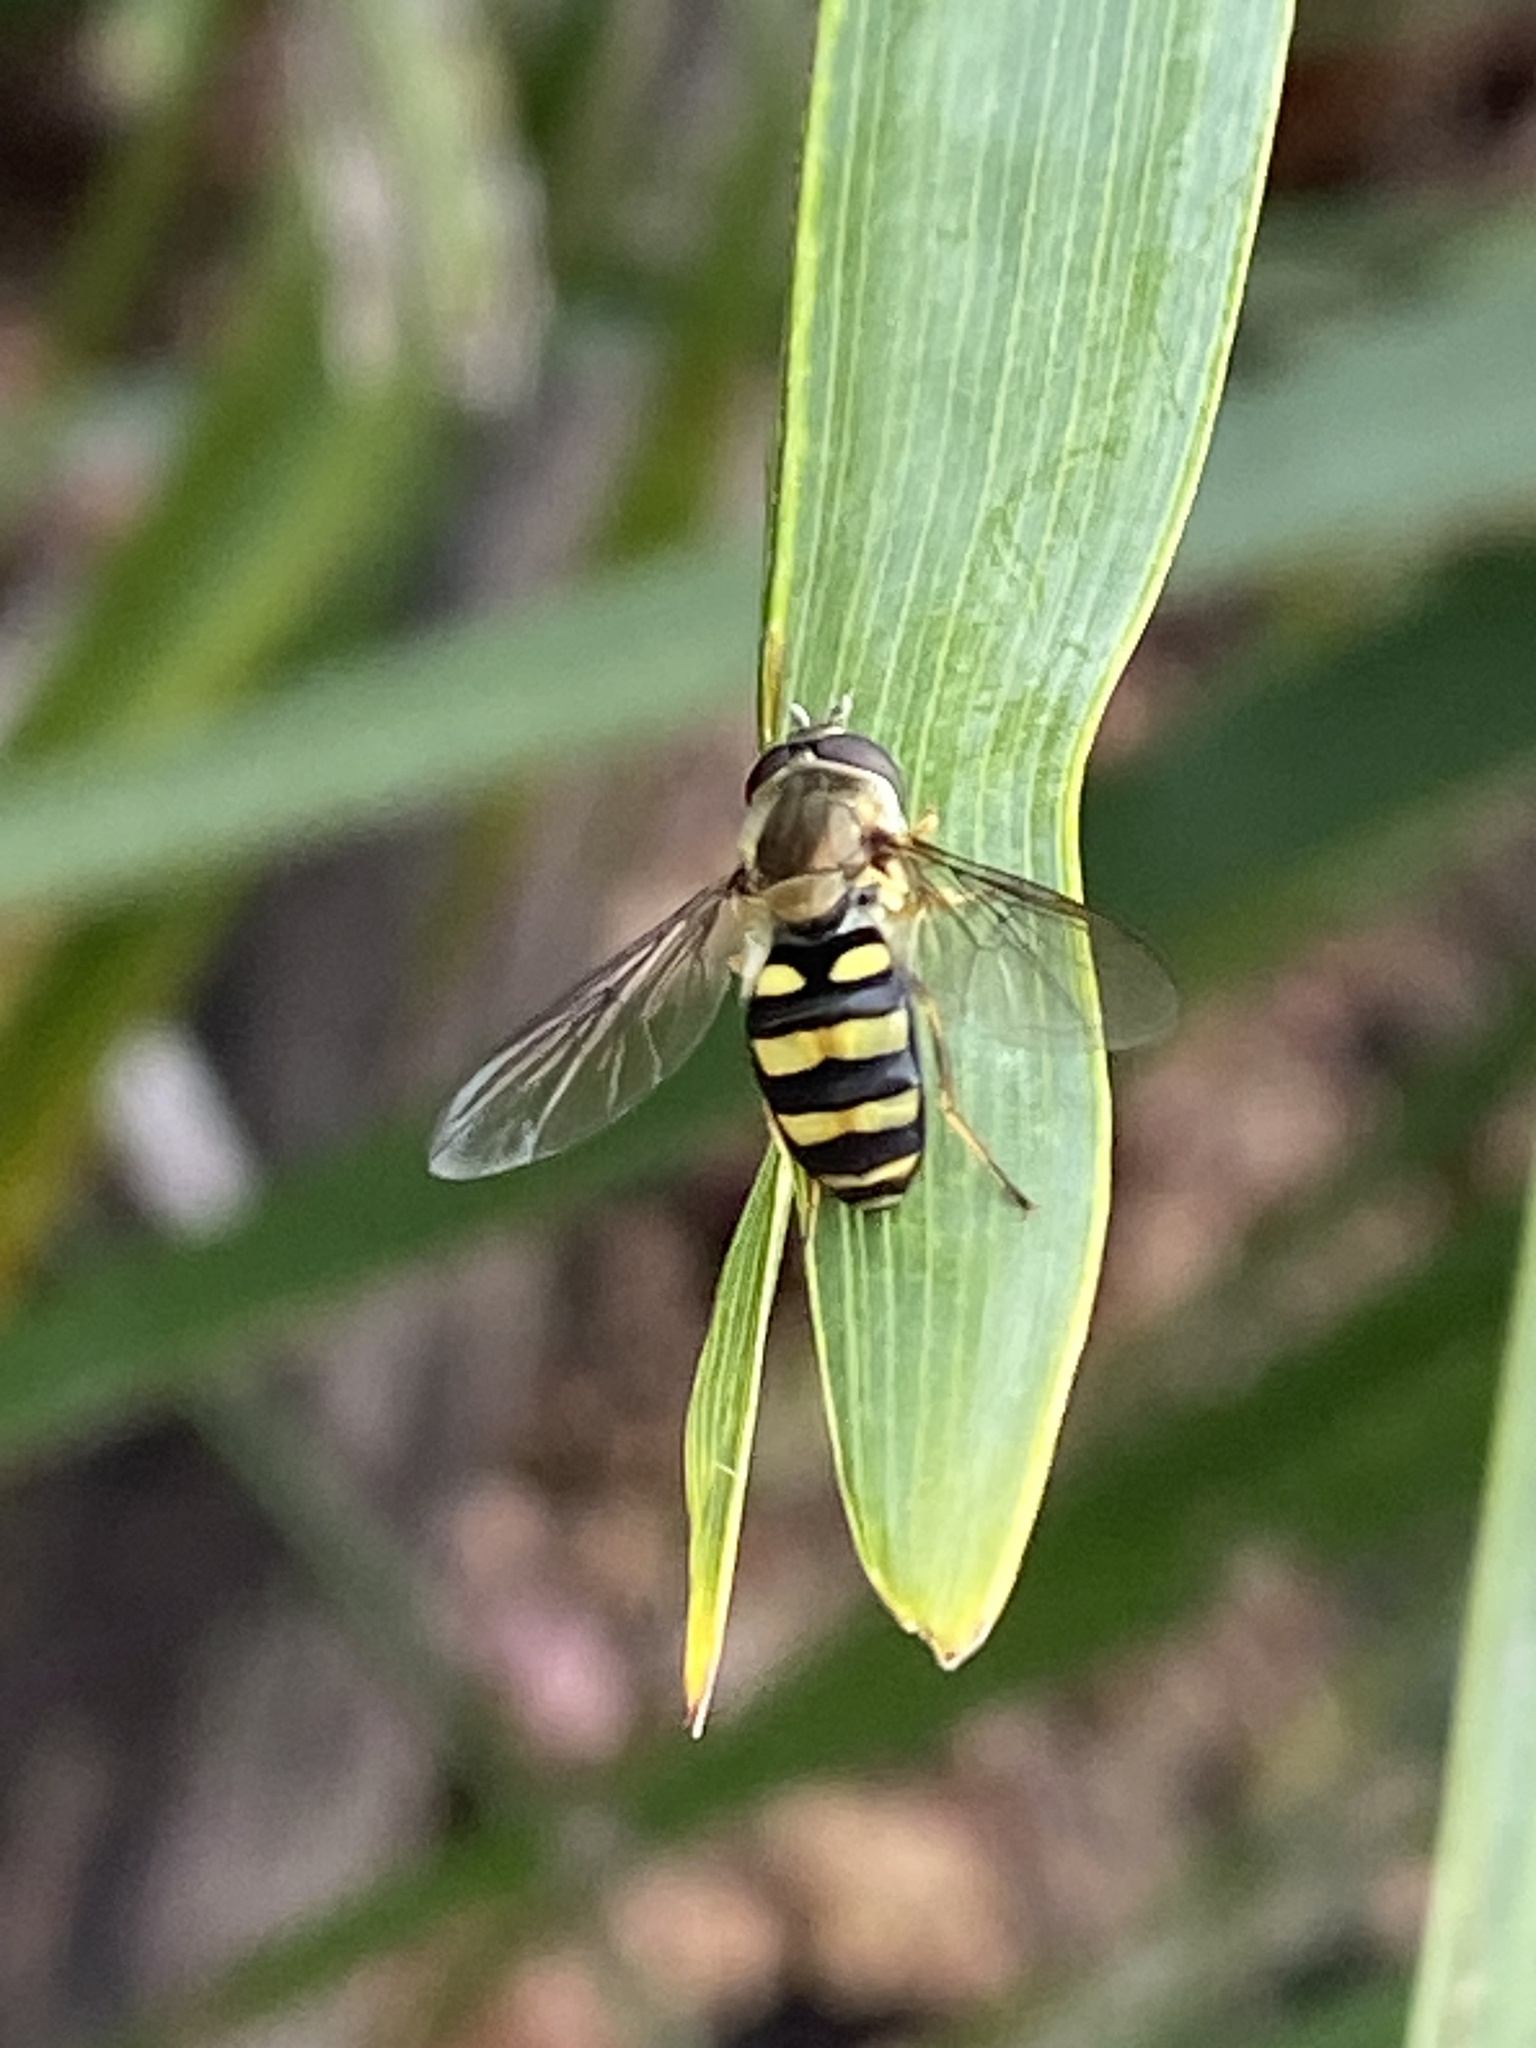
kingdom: Animalia
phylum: Arthropoda
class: Insecta
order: Diptera
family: Syrphidae
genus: Eupeodes
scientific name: Eupeodes
